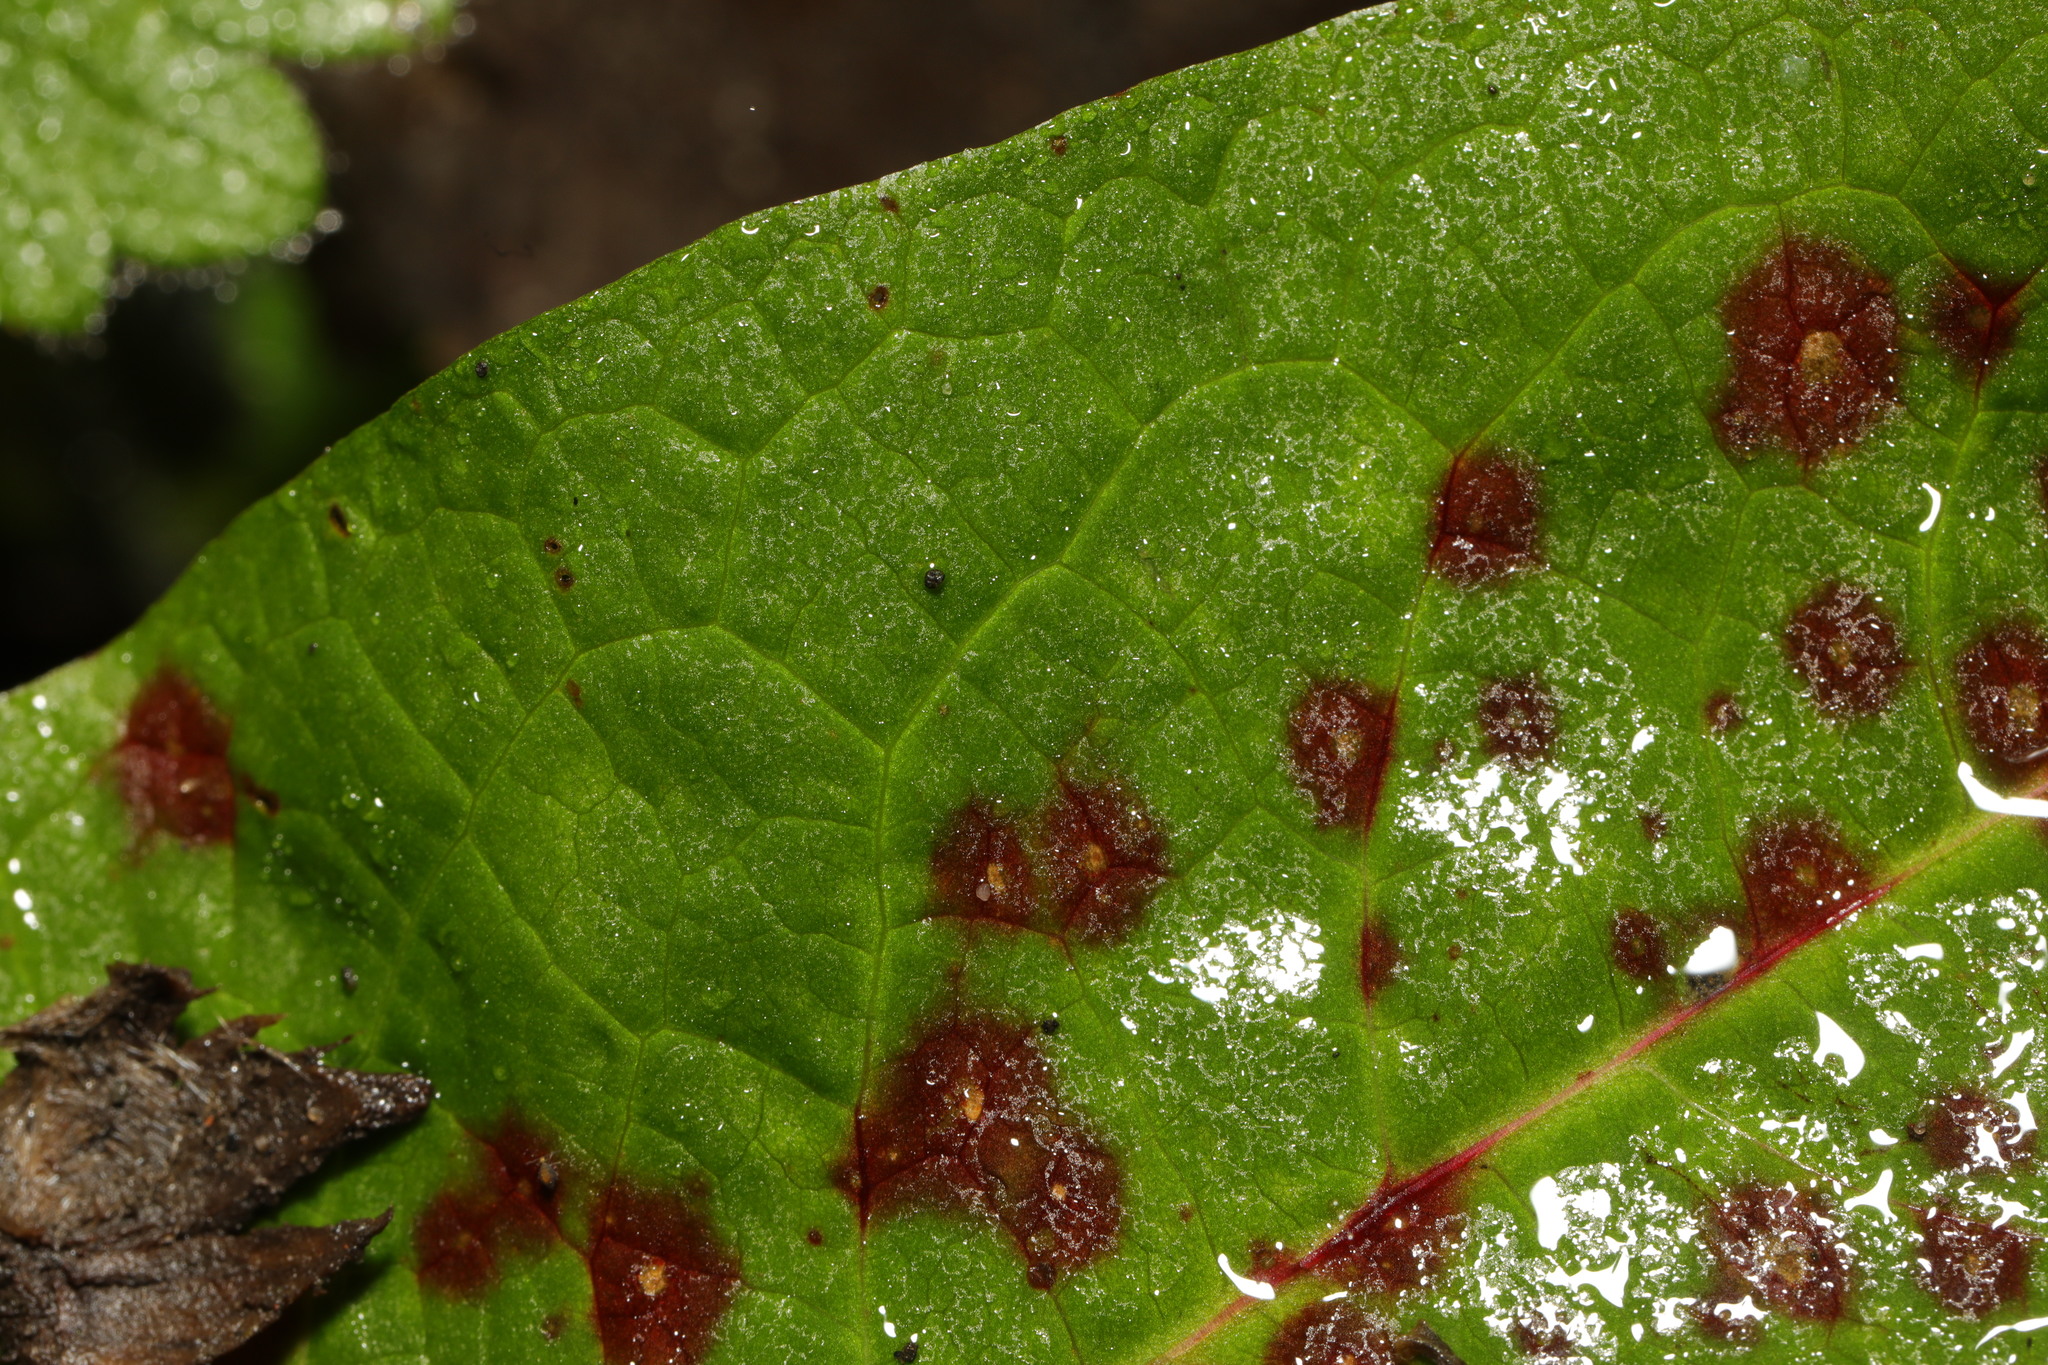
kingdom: Fungi
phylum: Ascomycota
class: Dothideomycetes
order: Mycosphaerellales
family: Mycosphaerellaceae
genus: Ramularia
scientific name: Ramularia rubella
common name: Red dock spot
